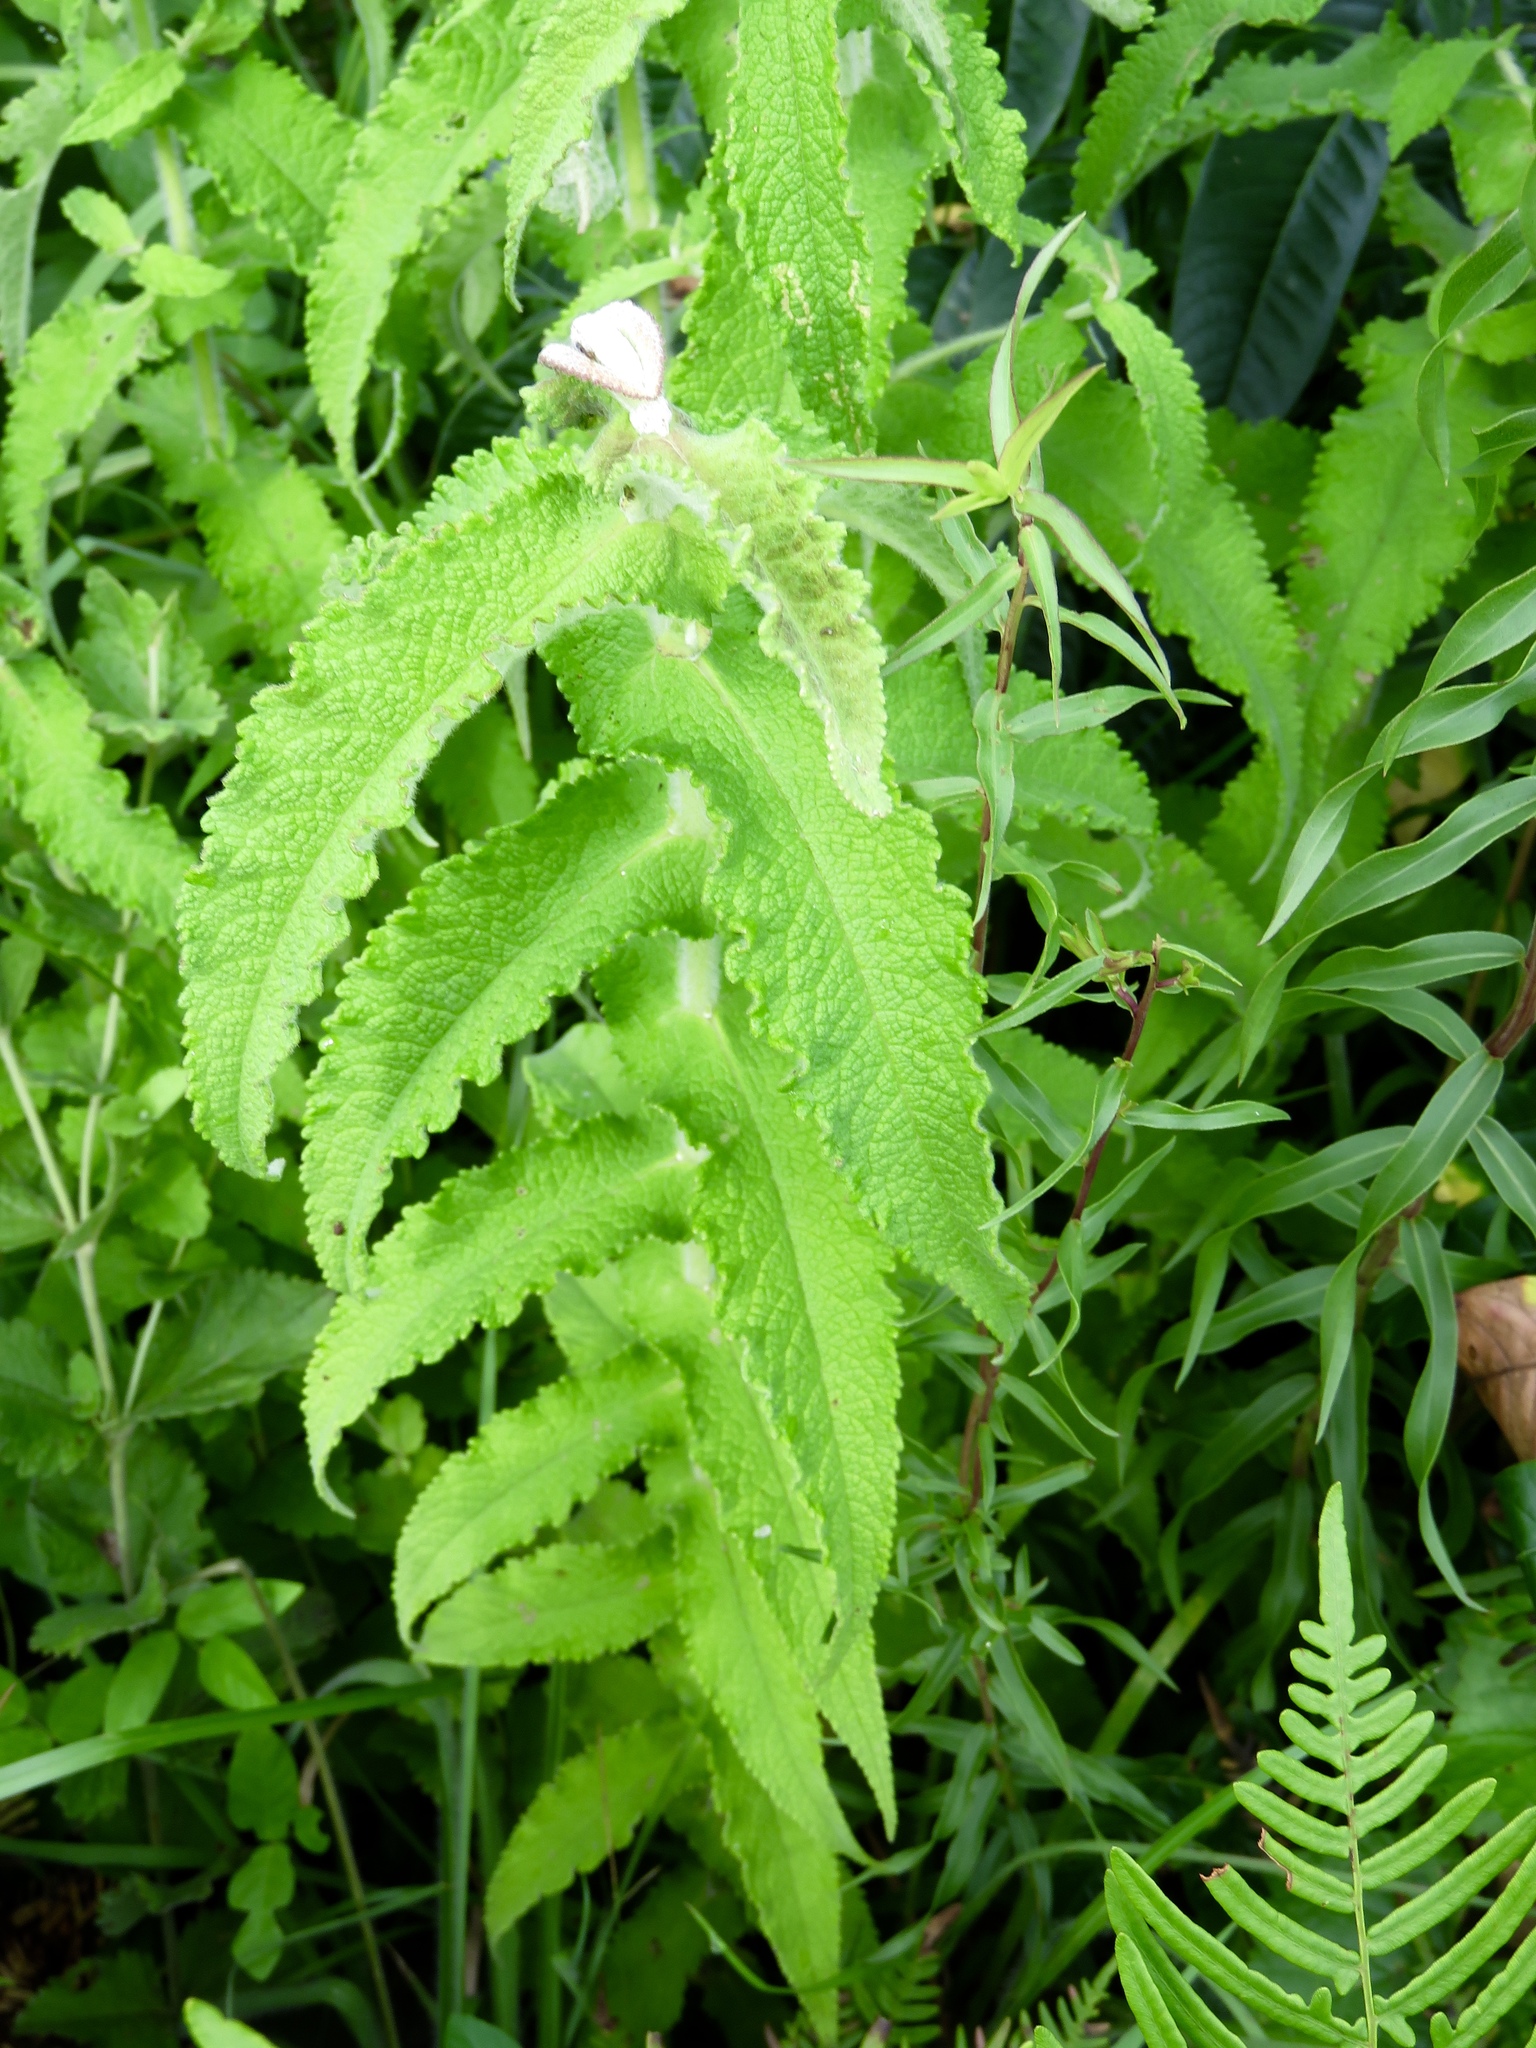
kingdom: Plantae
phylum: Tracheophyta
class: Magnoliopsida
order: Asterales
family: Asteraceae
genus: Eupatorium
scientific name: Eupatorium perfoliatum
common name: Boneset
